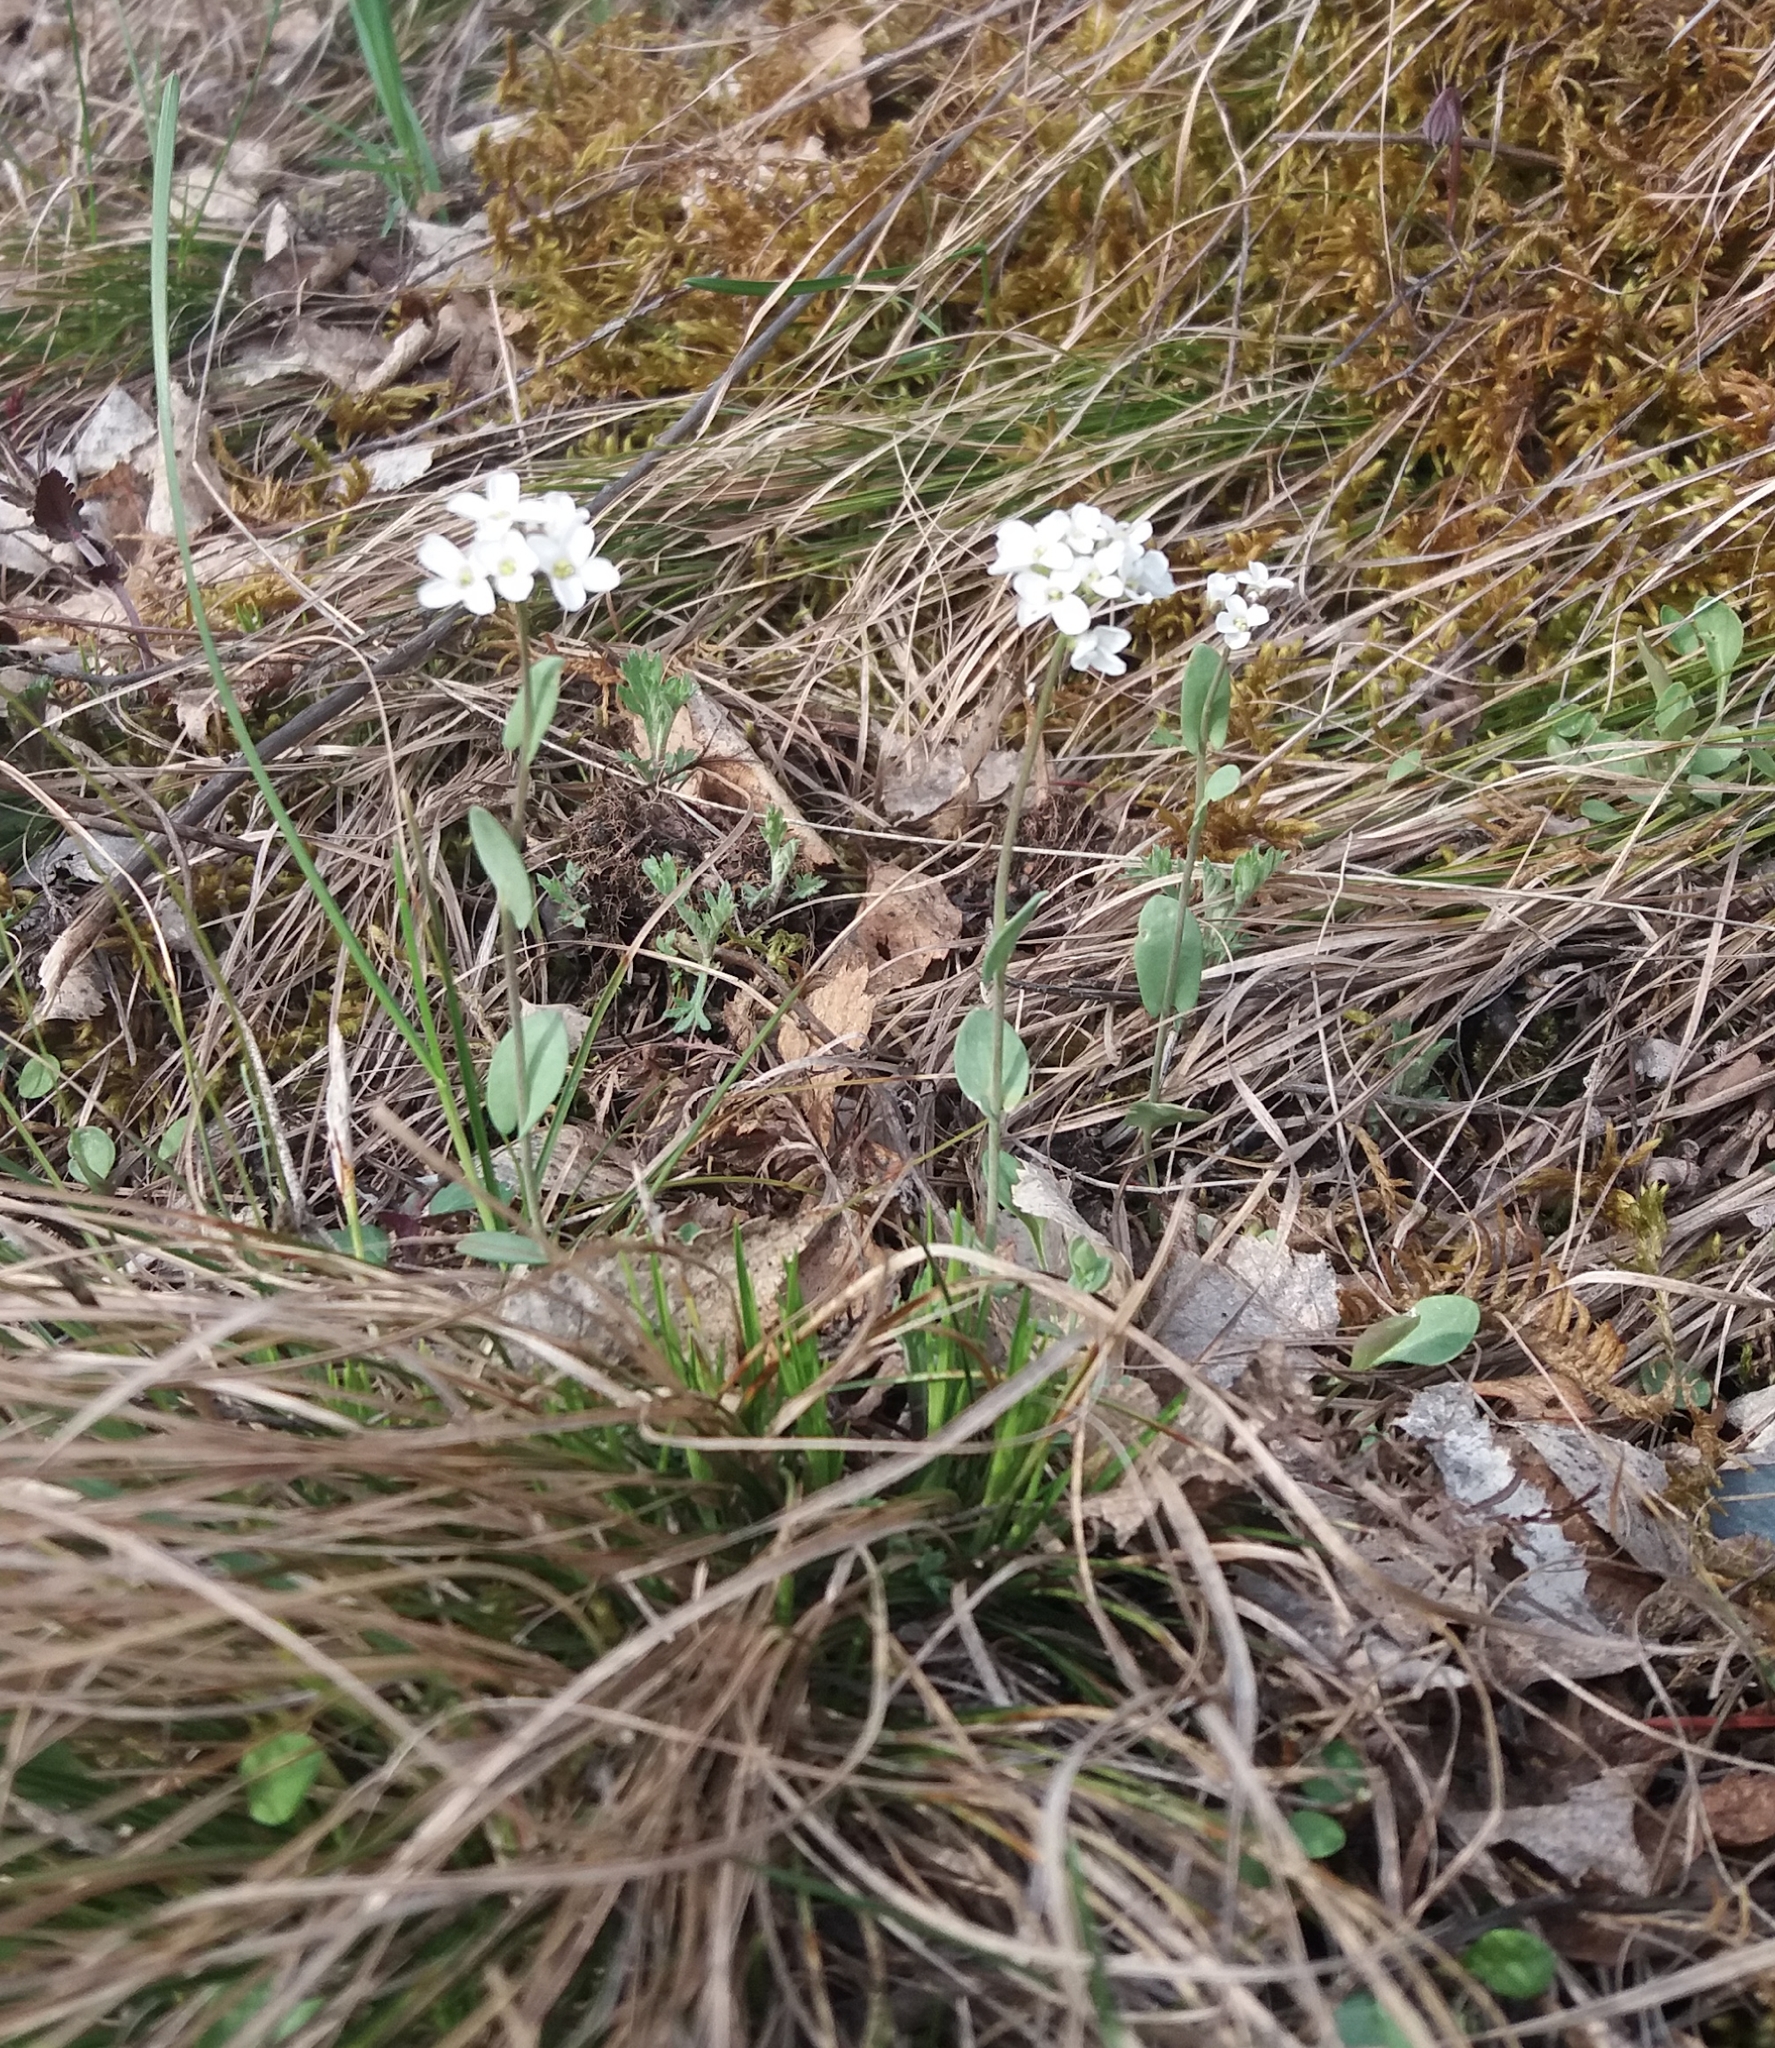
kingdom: Plantae
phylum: Tracheophyta
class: Magnoliopsida
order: Brassicales
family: Brassicaceae
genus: Noccaea
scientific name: Noccaea thlaspidioides
